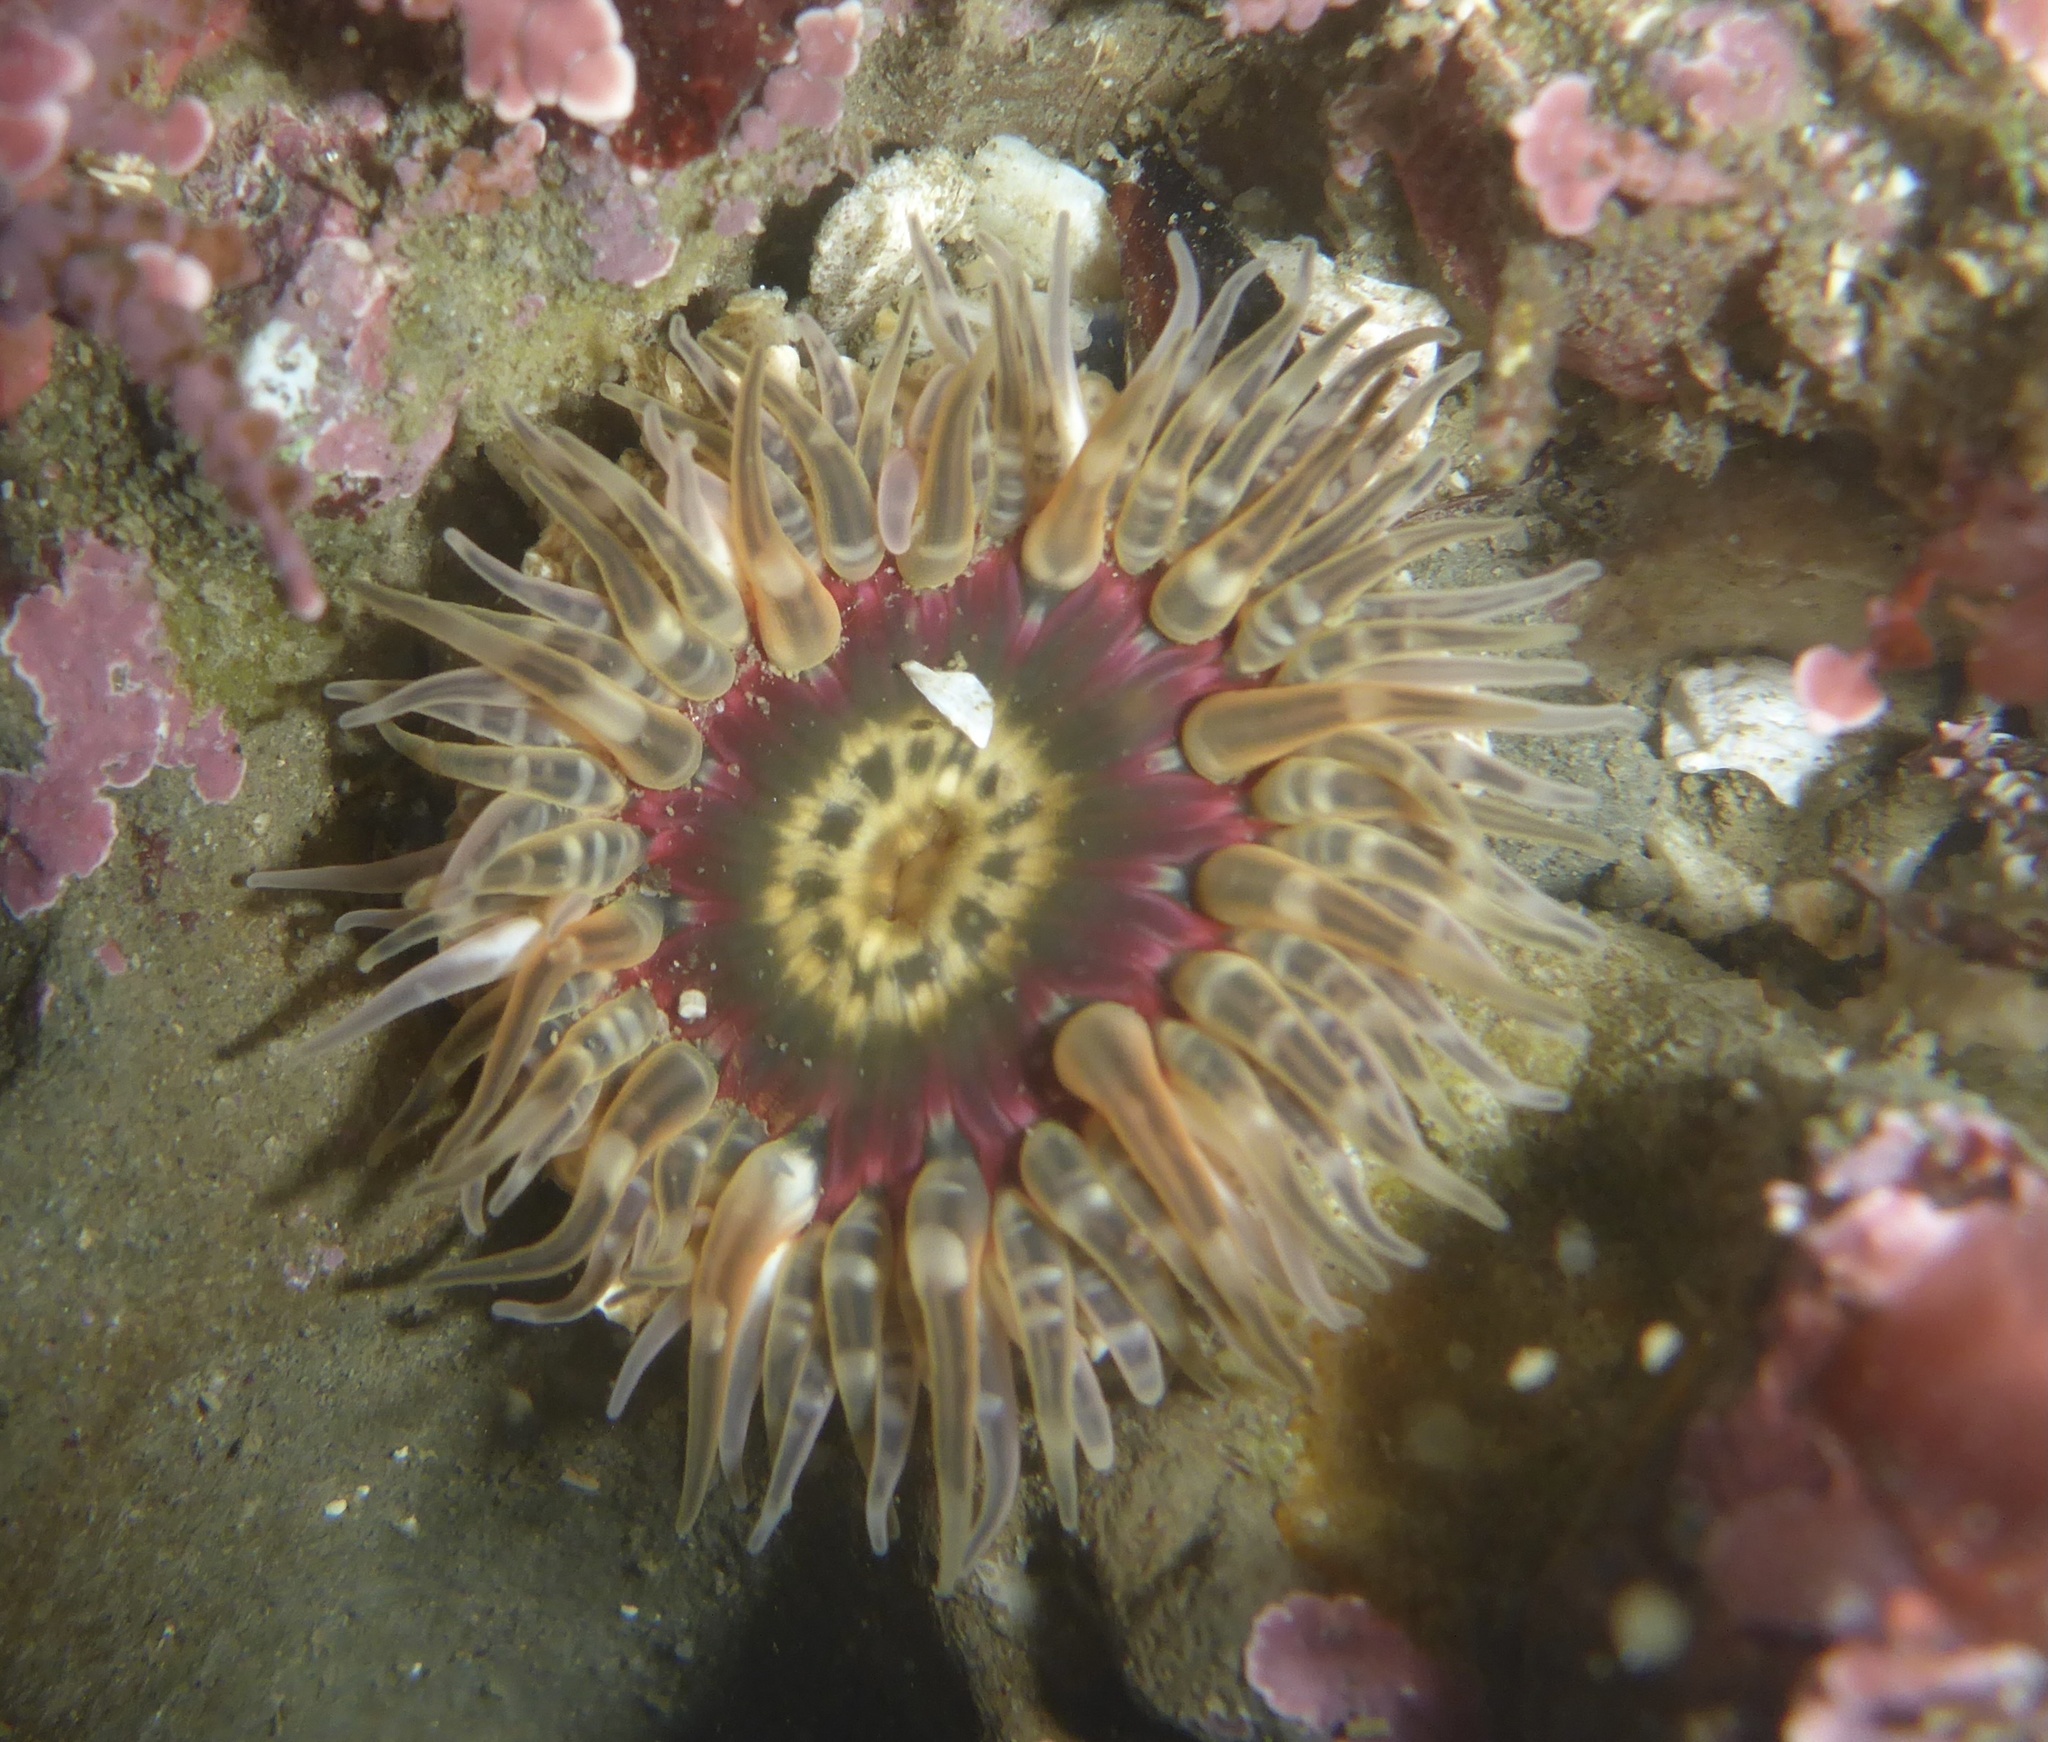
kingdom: Animalia
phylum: Cnidaria
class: Anthozoa
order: Actiniaria
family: Actiniidae
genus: Anthopleura
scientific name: Anthopleura artemisia
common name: Buried sea anemone
